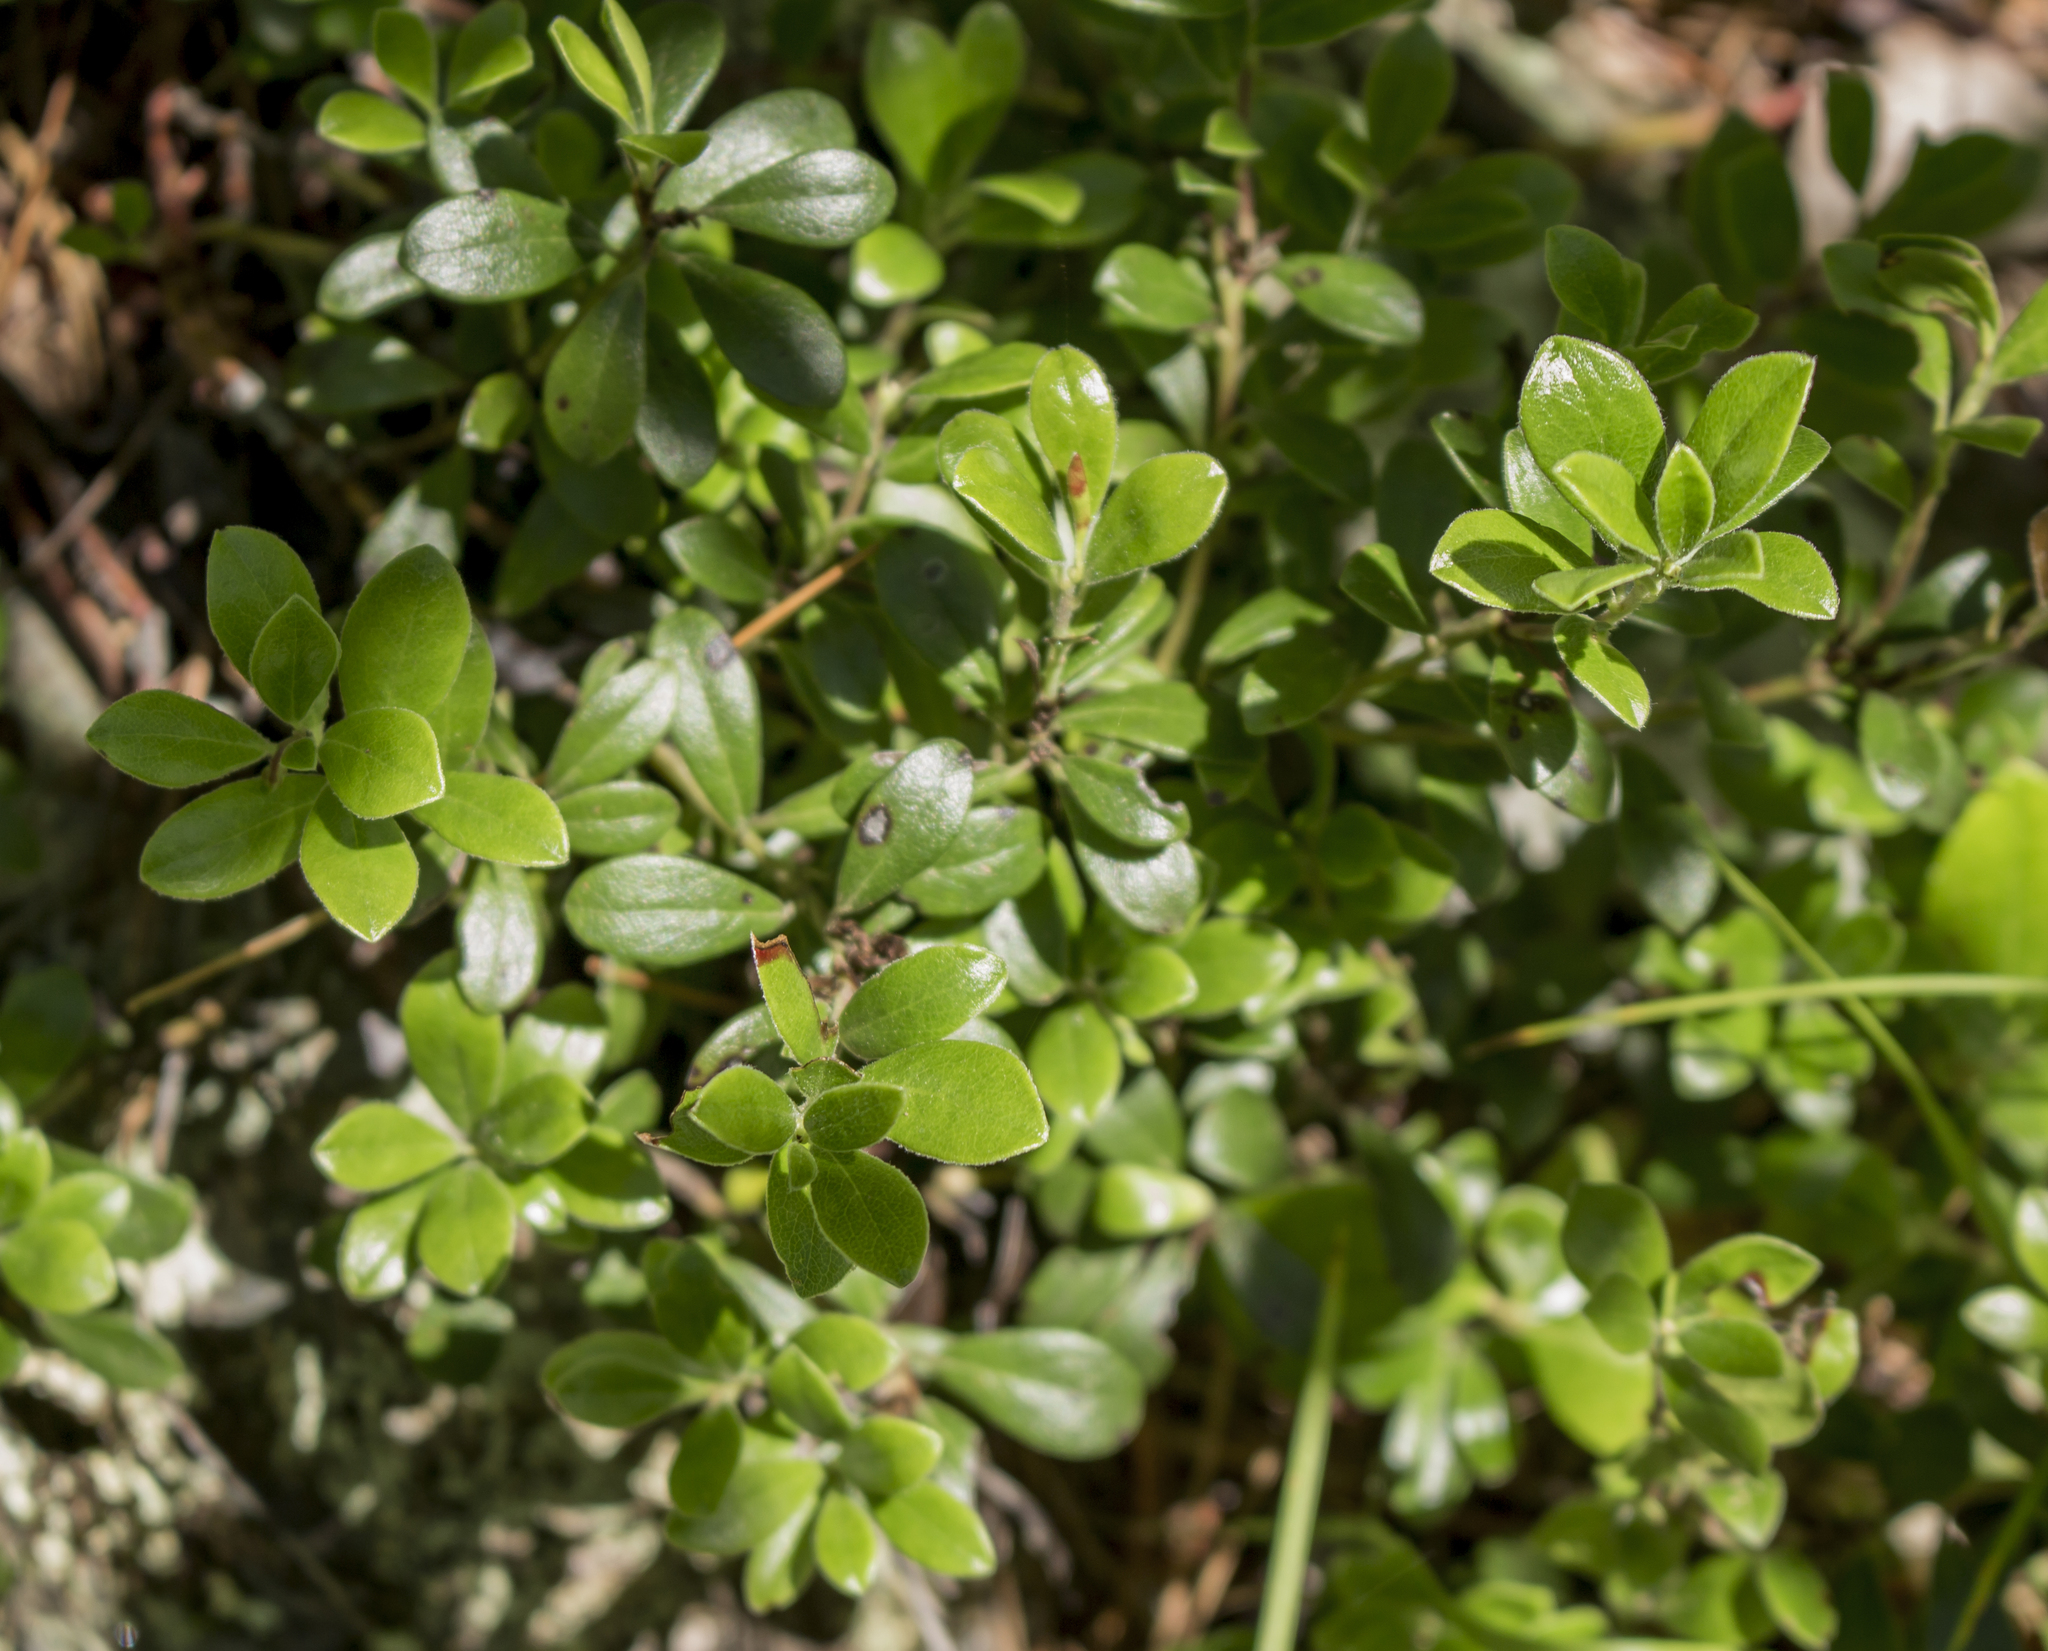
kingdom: Plantae
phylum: Tracheophyta
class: Magnoliopsida
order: Ericales
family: Ericaceae
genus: Arctostaphylos
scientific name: Arctostaphylos uva-ursi
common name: Bearberry
